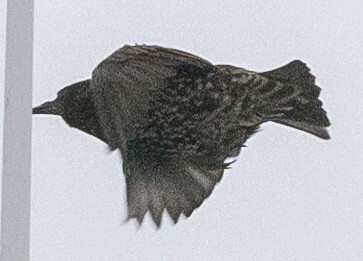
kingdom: Animalia
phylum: Chordata
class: Aves
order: Passeriformes
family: Sturnidae
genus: Sturnus
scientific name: Sturnus vulgaris
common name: Common starling
